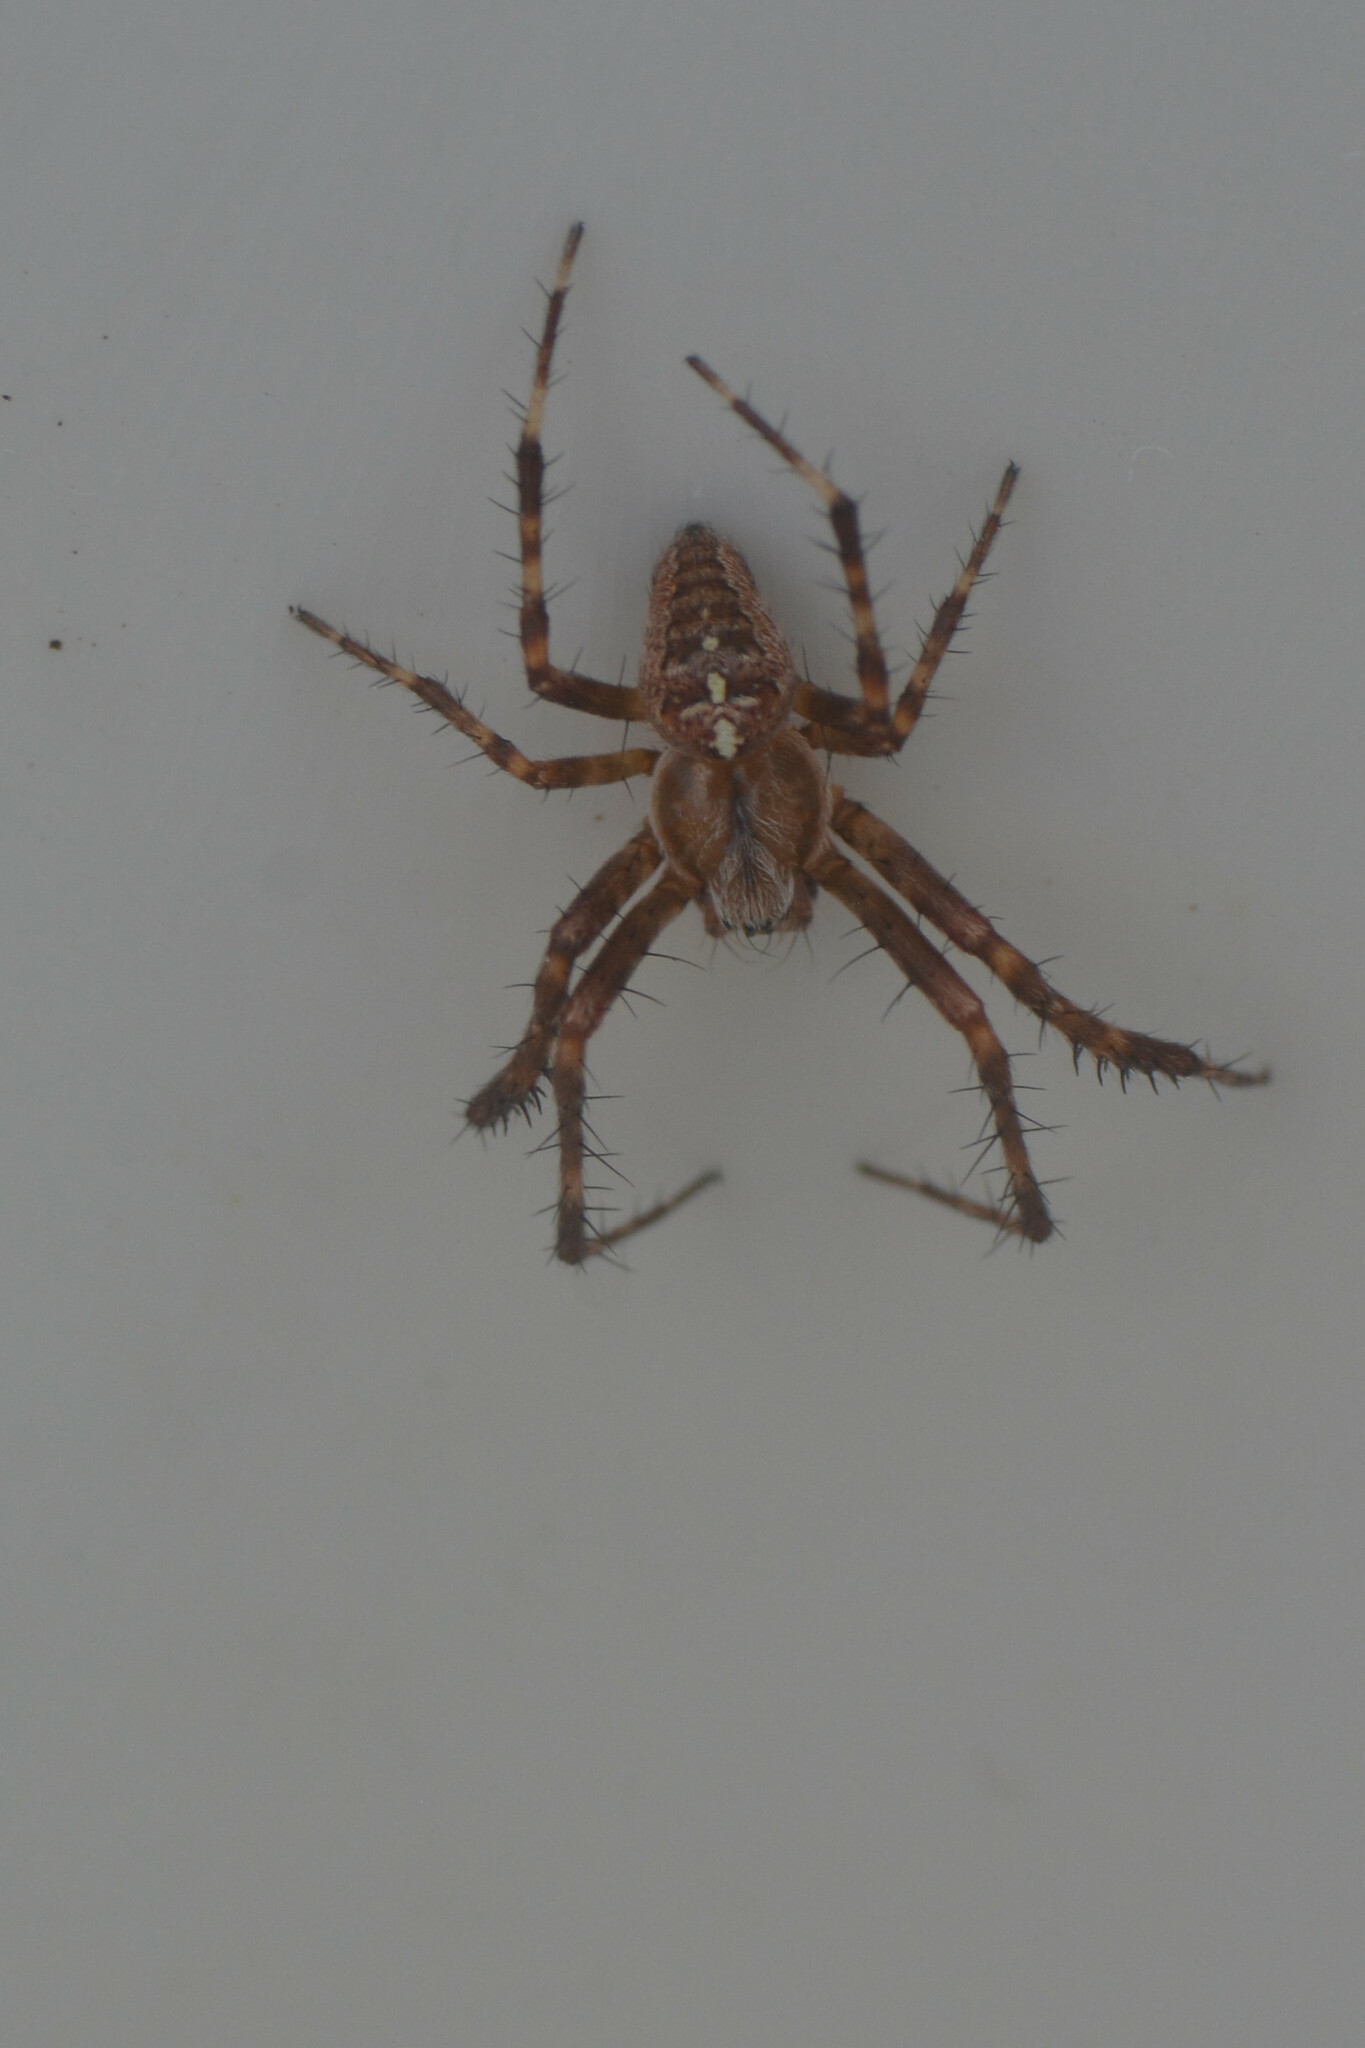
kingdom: Animalia
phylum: Arthropoda
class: Arachnida
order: Araneae
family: Araneidae
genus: Araneus
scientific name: Araneus diadematus
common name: Cross orbweaver
